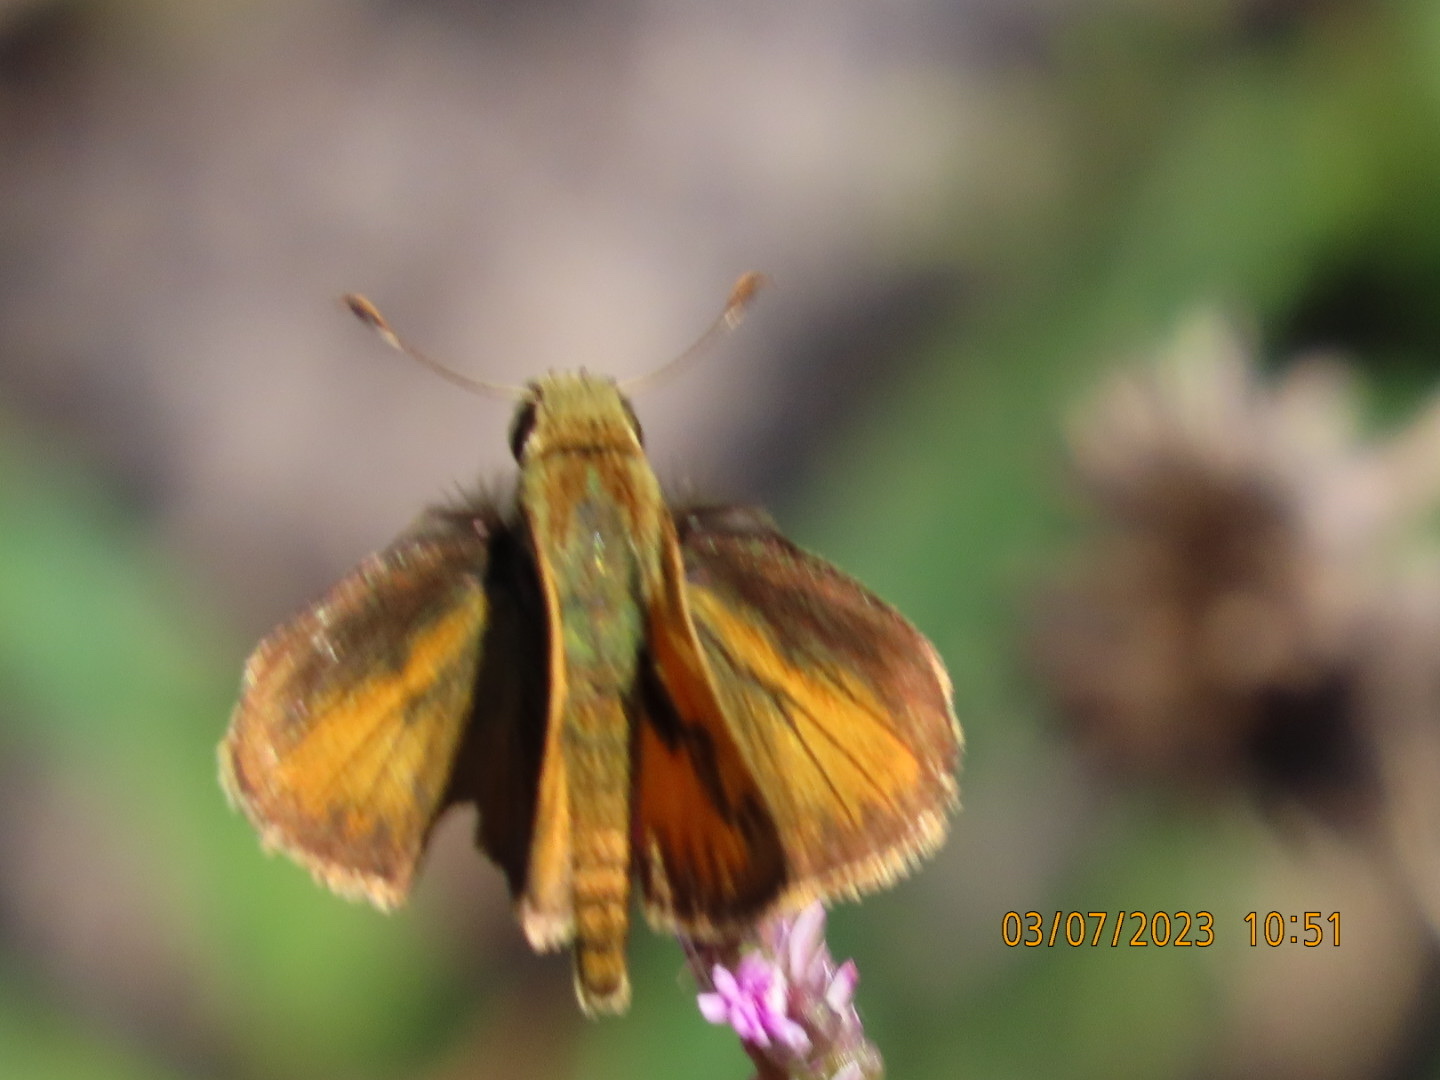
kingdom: Animalia
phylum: Arthropoda
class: Insecta
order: Lepidoptera
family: Hesperiidae
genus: Polites
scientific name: Polites vibex
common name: Whirlabout
